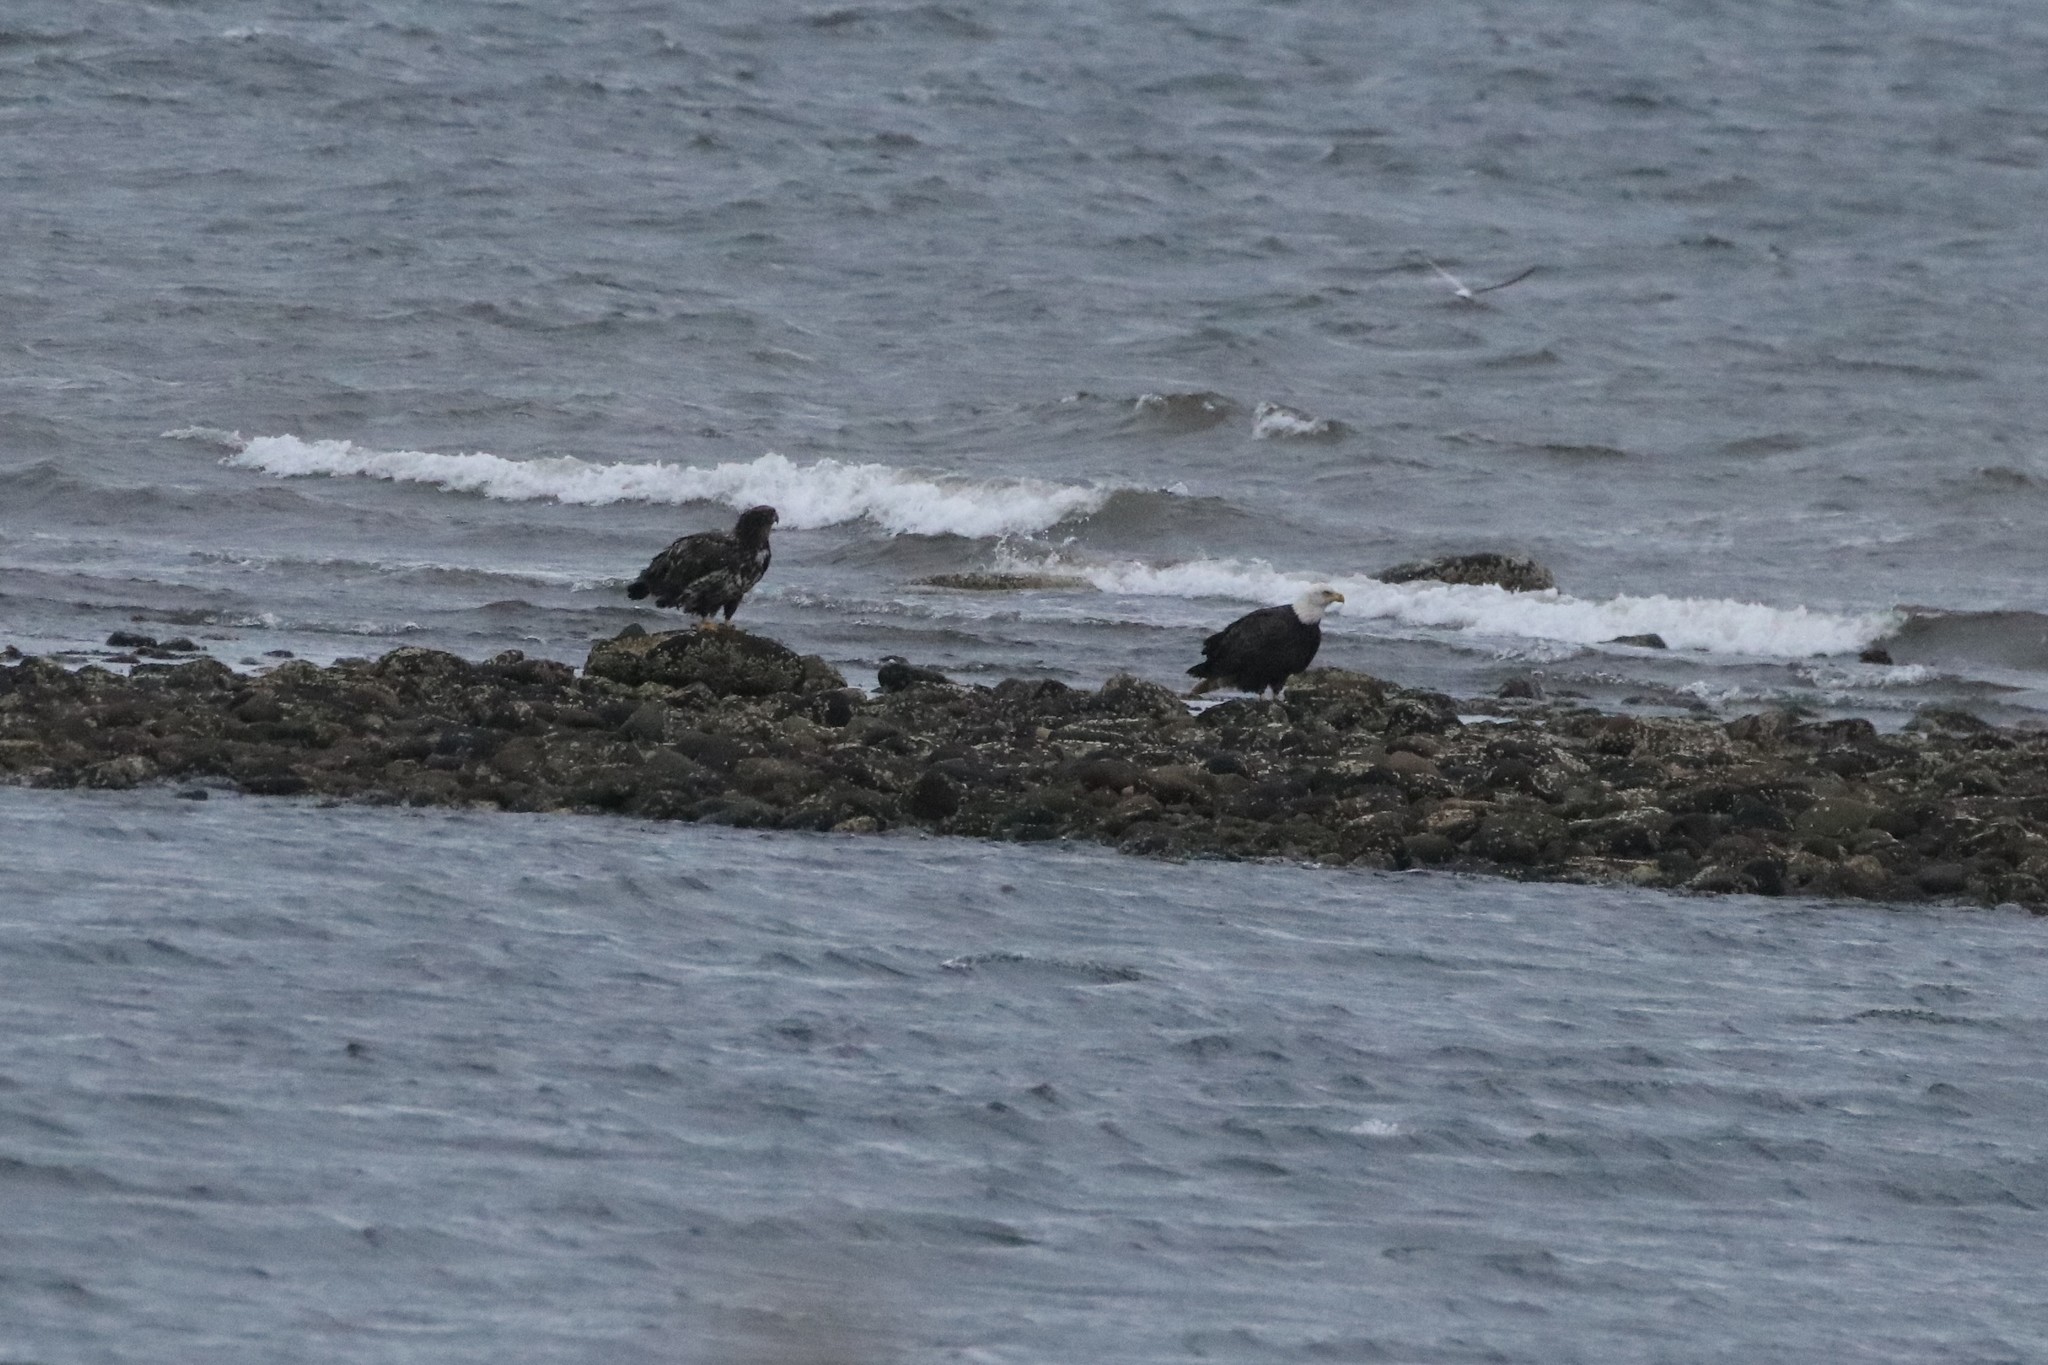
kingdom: Animalia
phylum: Chordata
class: Aves
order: Accipitriformes
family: Accipitridae
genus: Haliaeetus
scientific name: Haliaeetus leucocephalus
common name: Bald eagle
